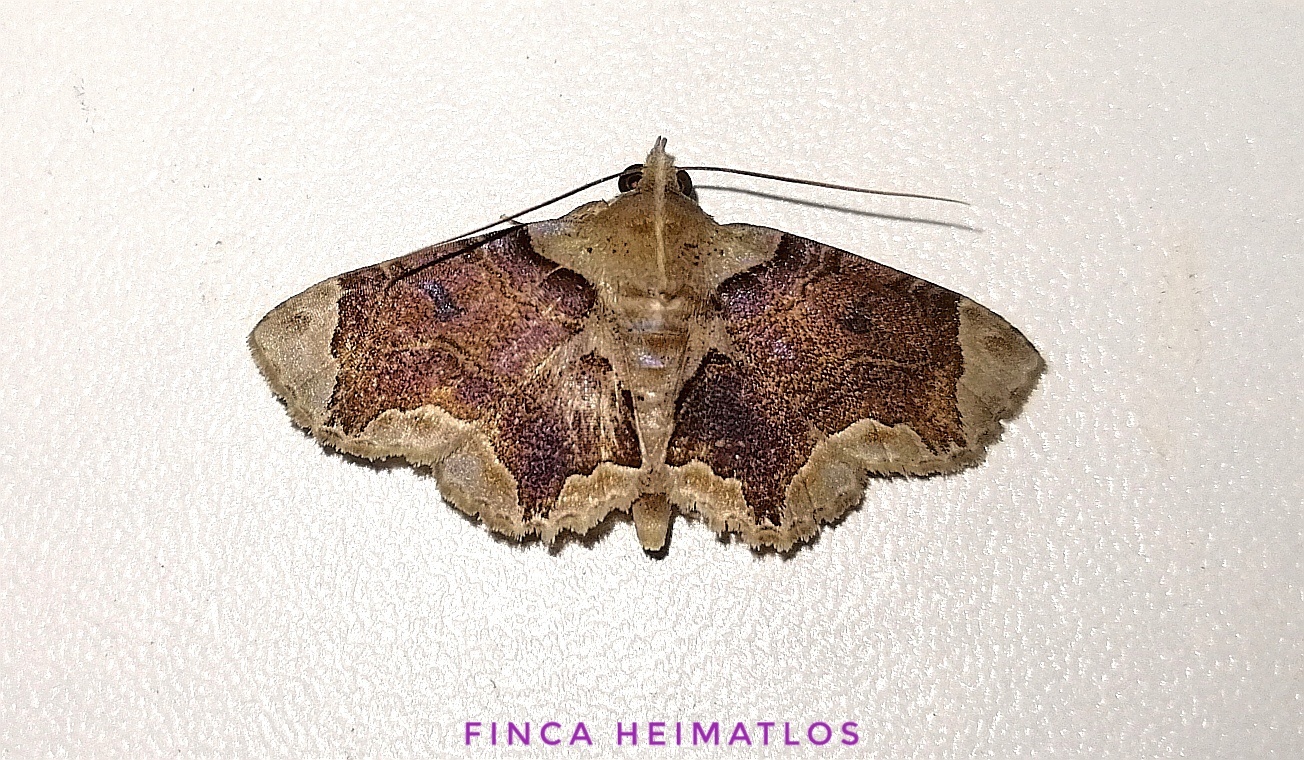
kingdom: Animalia
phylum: Arthropoda
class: Insecta
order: Lepidoptera
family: Erebidae
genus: Dolichosomastis
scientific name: Dolichosomastis bicolorata
